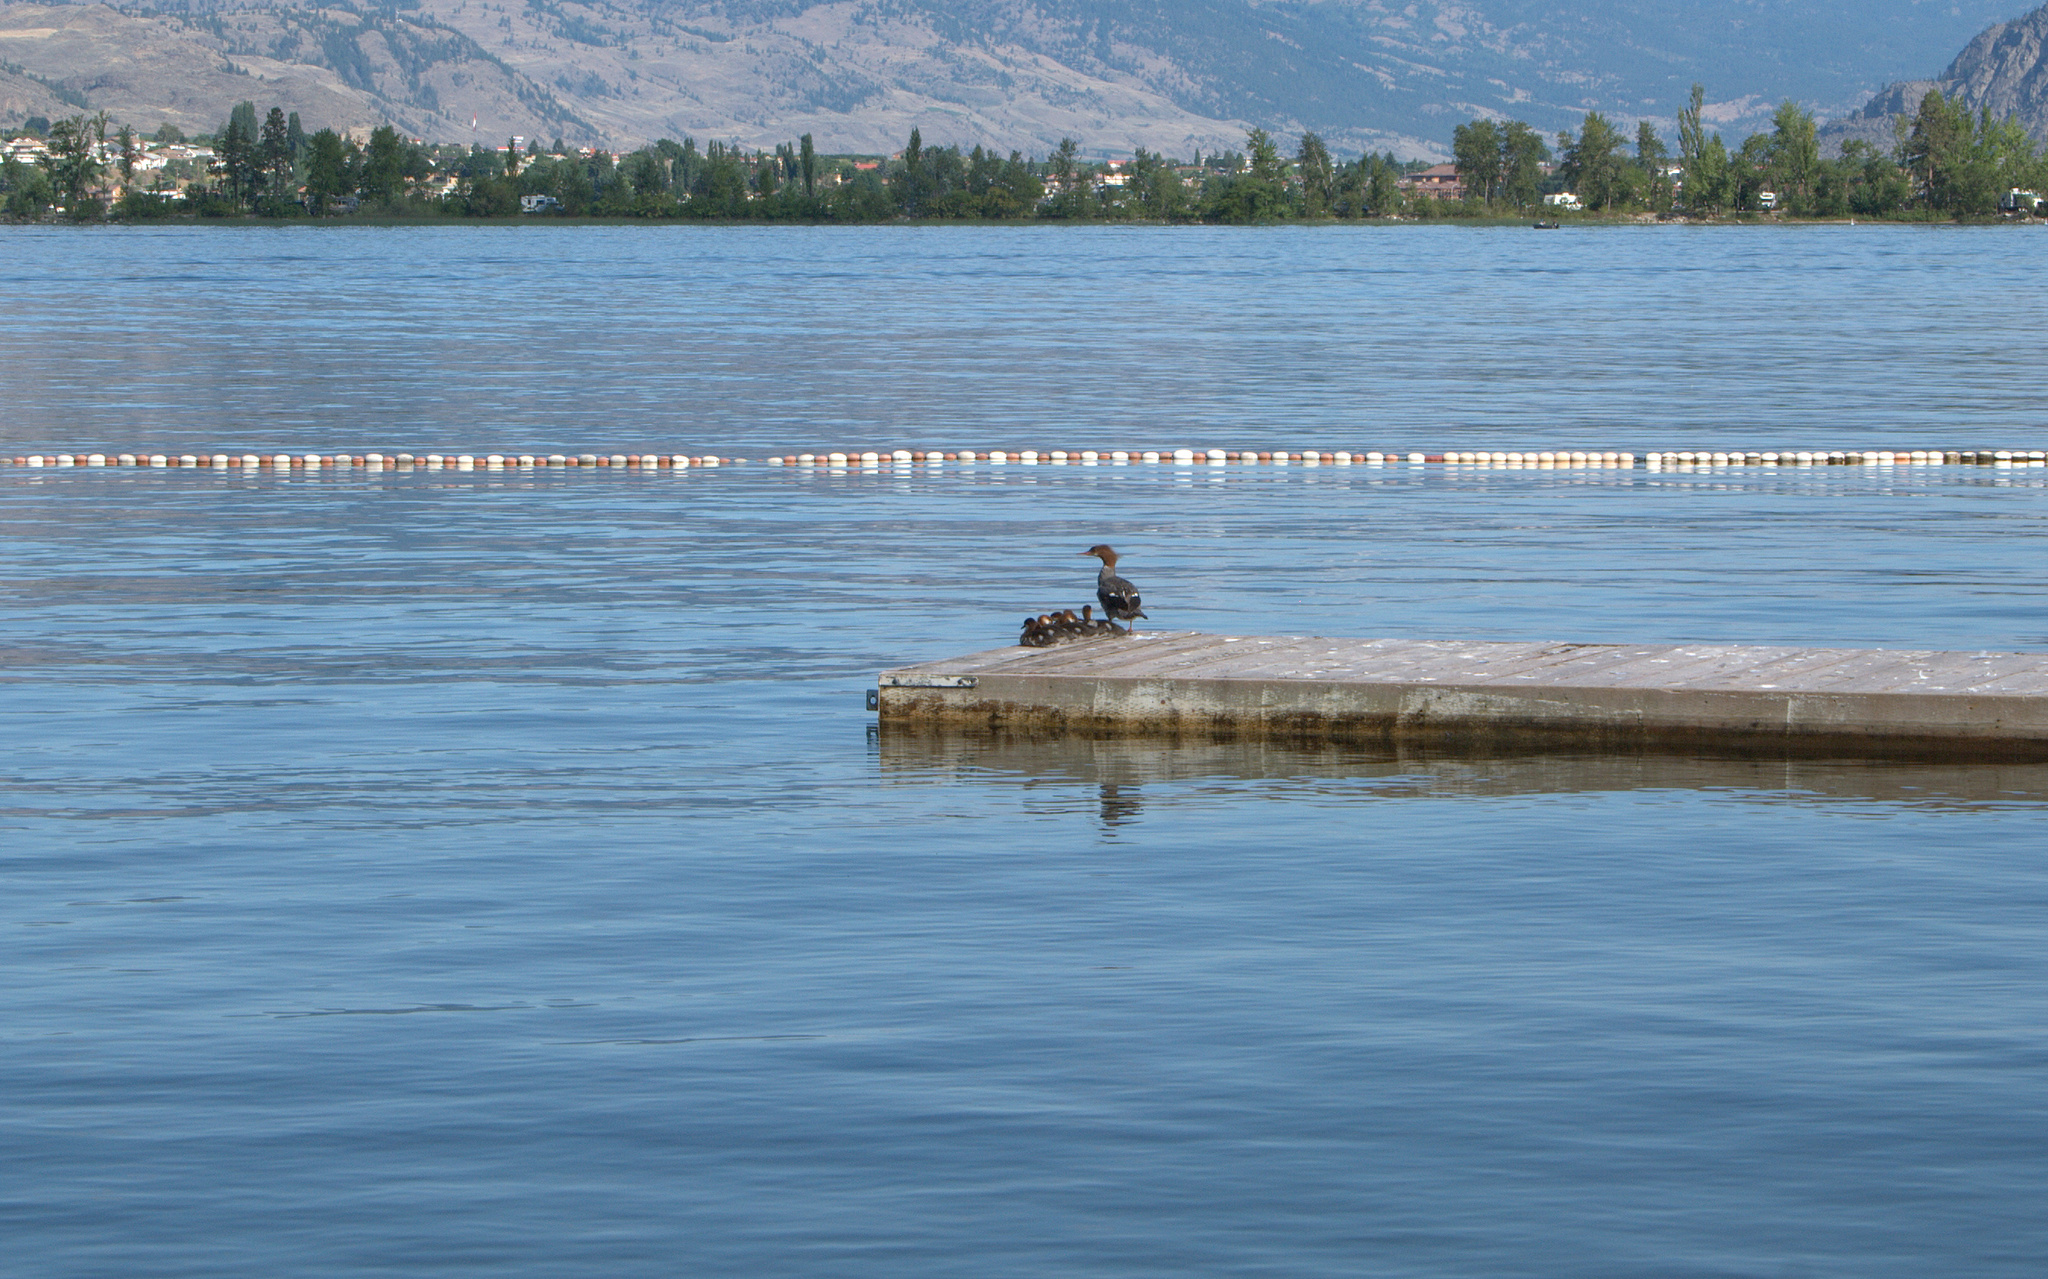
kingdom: Animalia
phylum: Chordata
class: Aves
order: Anseriformes
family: Anatidae
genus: Mergus
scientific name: Mergus merganser
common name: Common merganser
